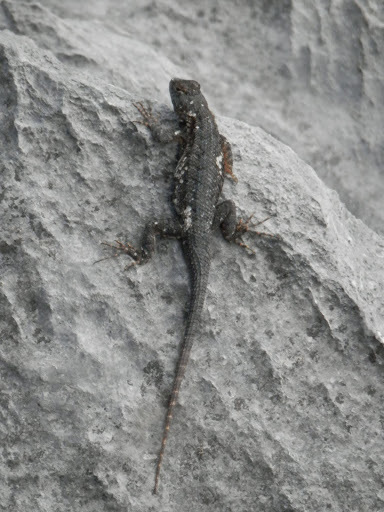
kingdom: Animalia
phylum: Chordata
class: Squamata
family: Phrynosomatidae
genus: Sceloporus
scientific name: Sceloporus occidentalis
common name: Western fence lizard
